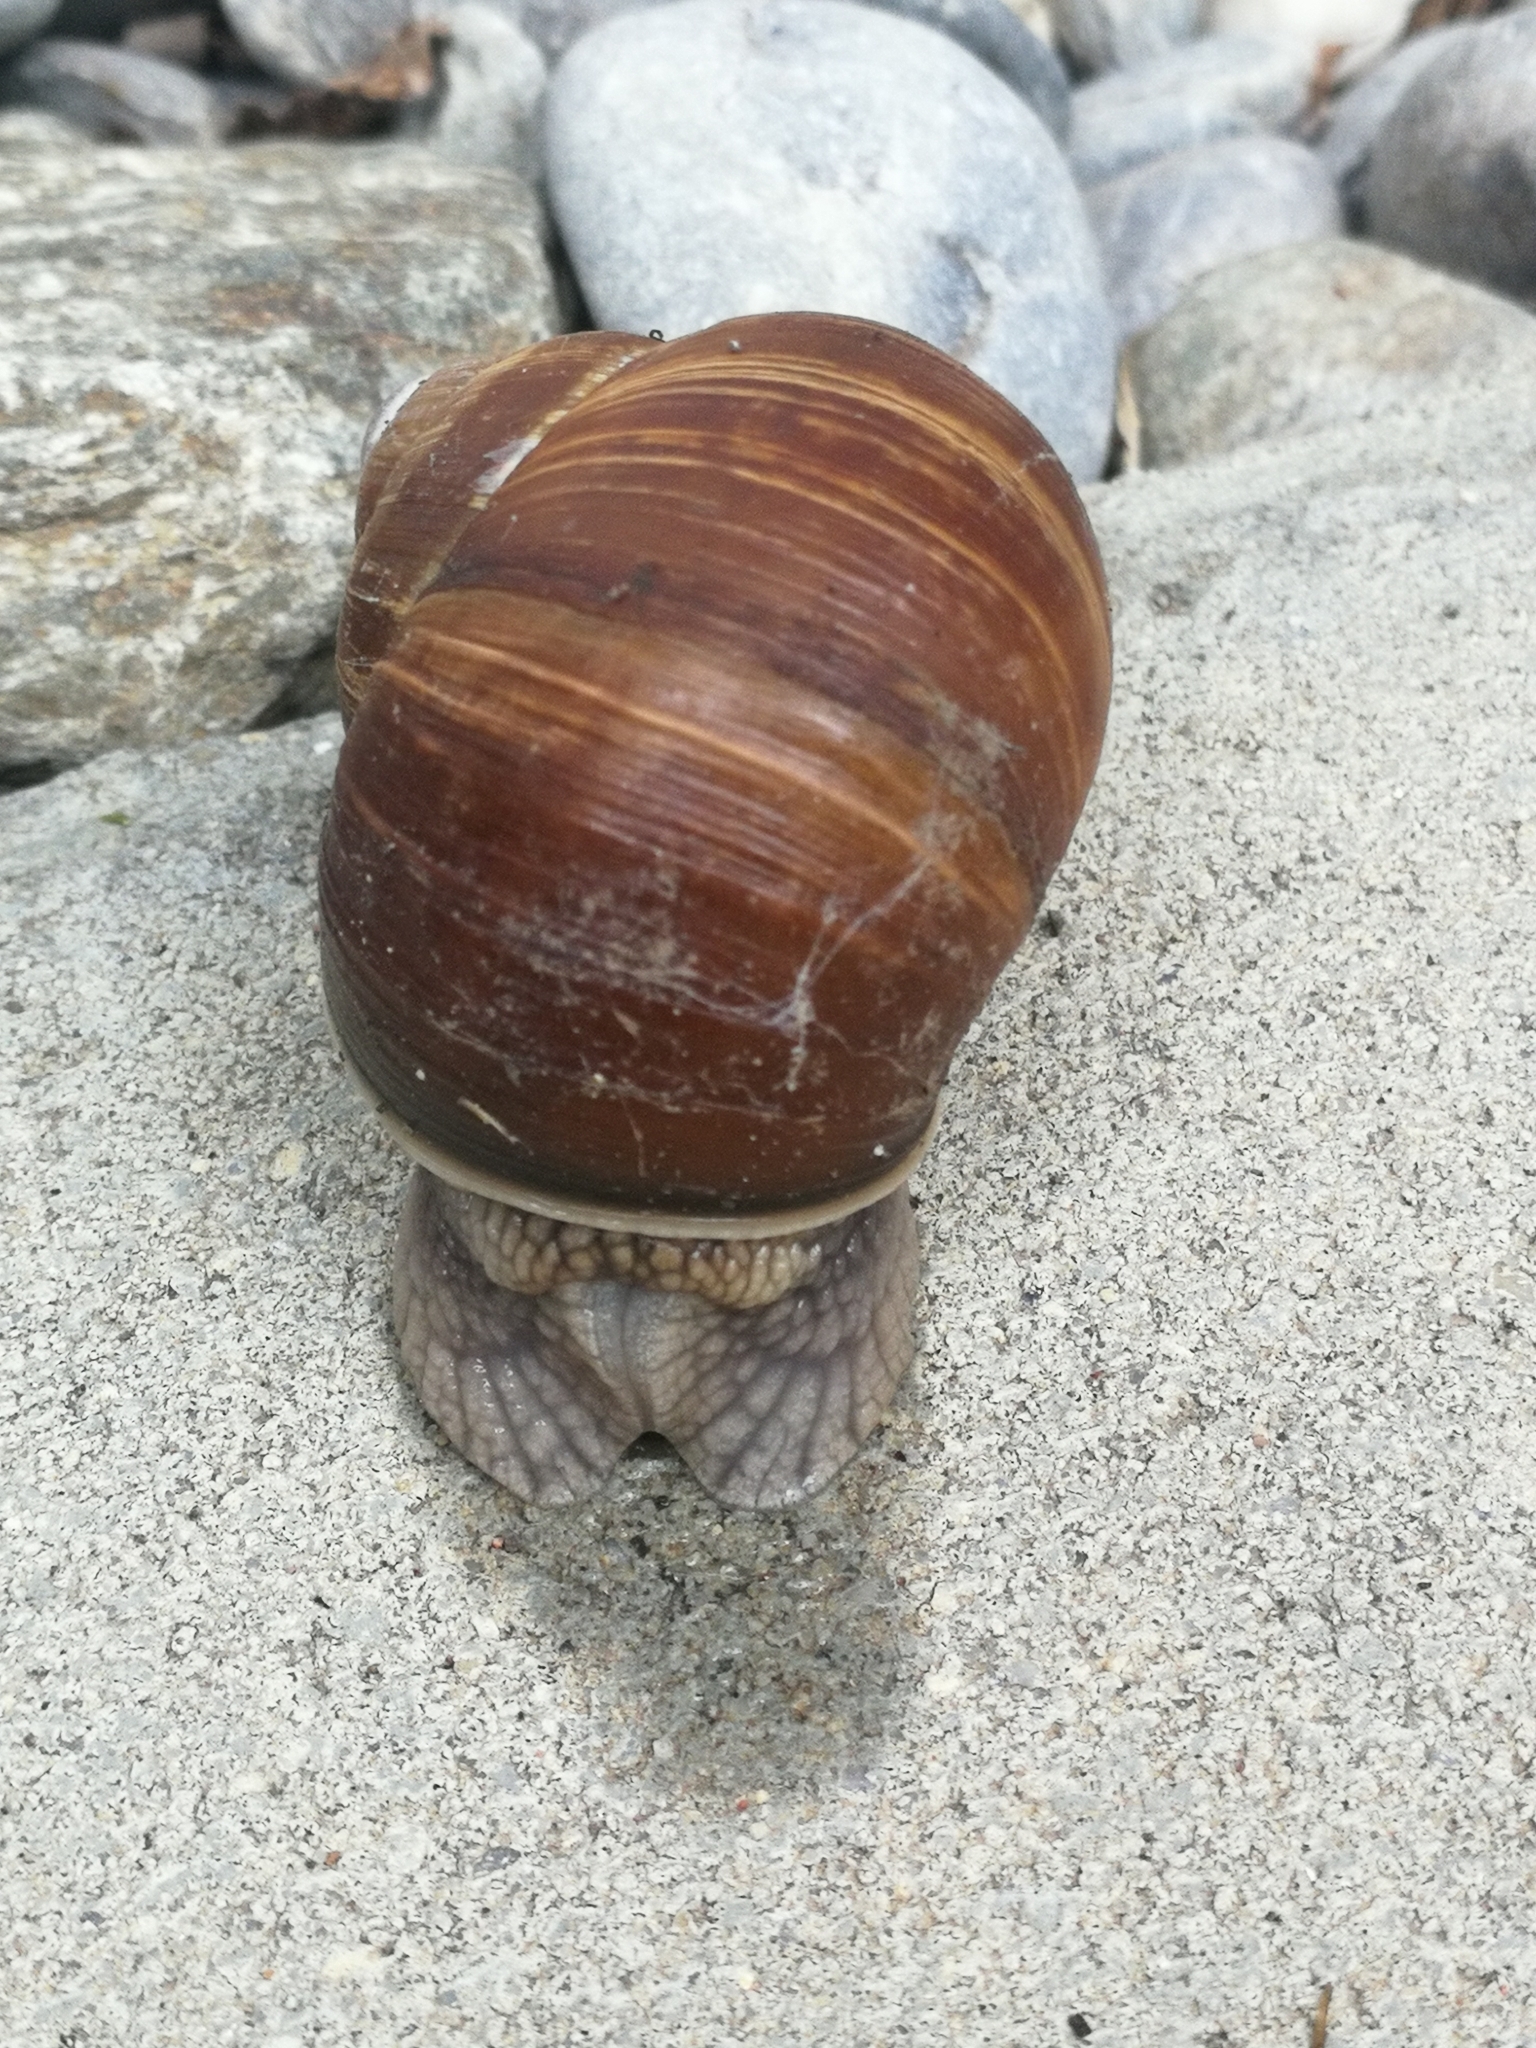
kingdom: Animalia
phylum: Mollusca
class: Gastropoda
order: Stylommatophora
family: Helicidae
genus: Helix
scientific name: Helix pomatia
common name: Roman snail
